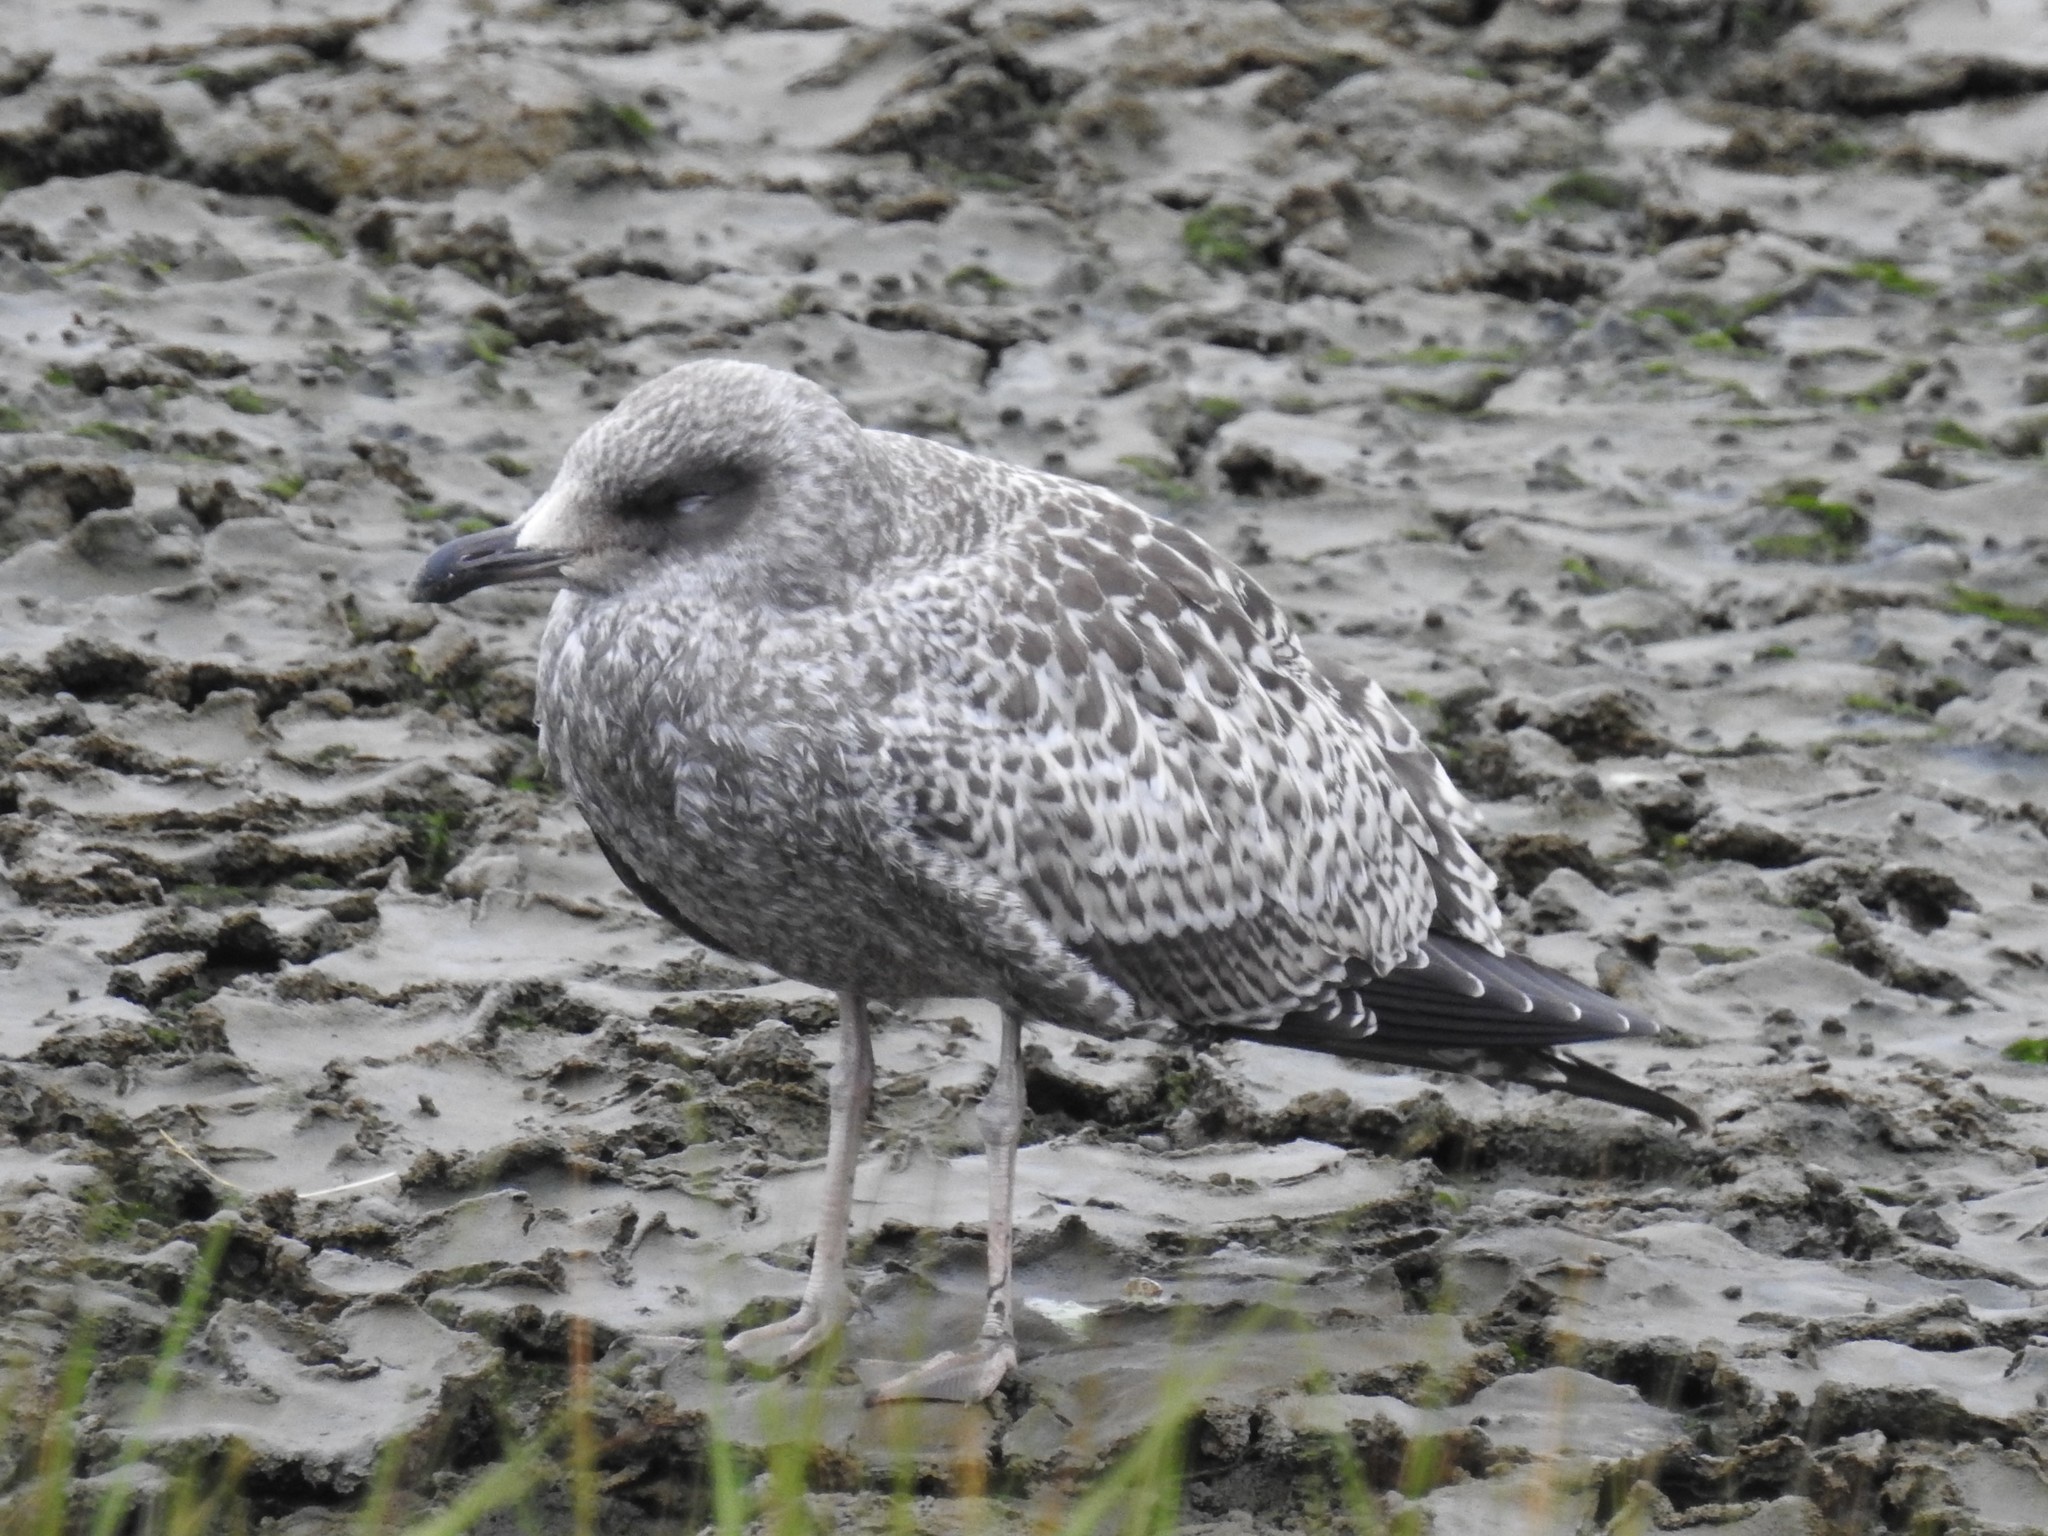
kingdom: Animalia
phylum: Chordata
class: Aves
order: Charadriiformes
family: Laridae
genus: Larus
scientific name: Larus californicus
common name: California gull
